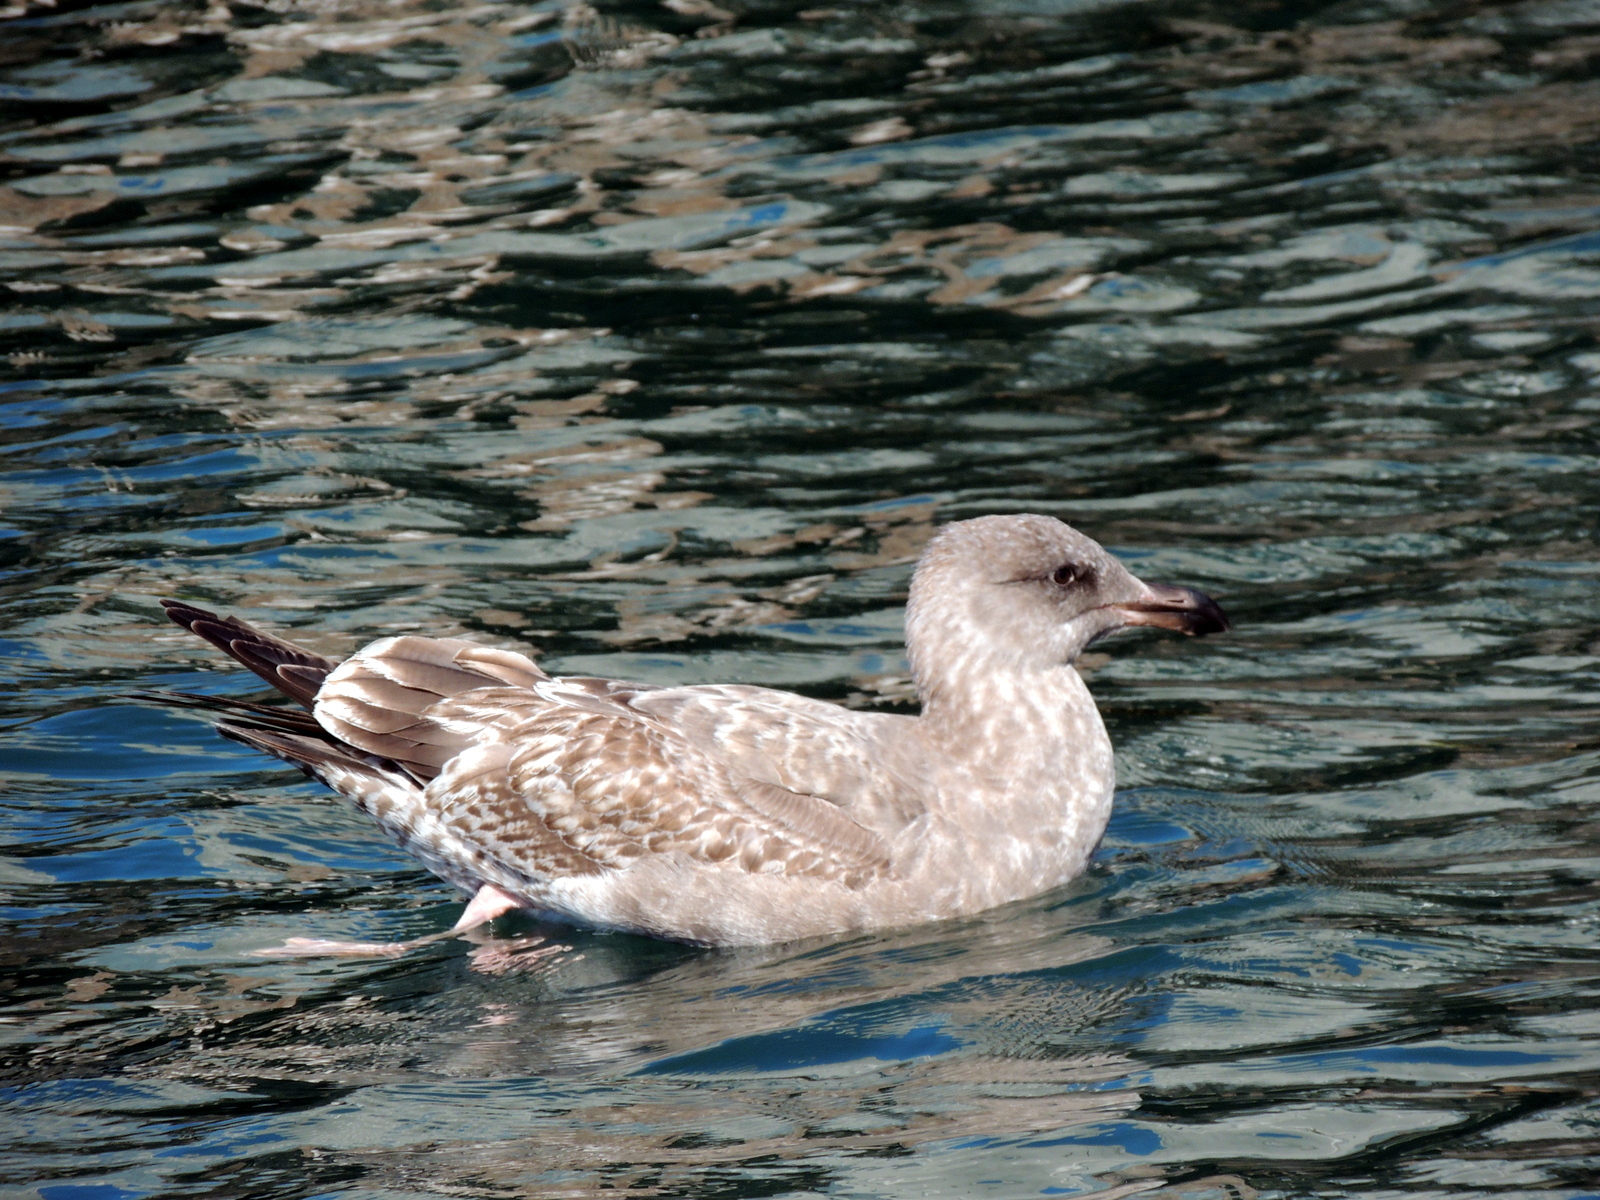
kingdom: Animalia
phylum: Chordata
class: Aves
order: Charadriiformes
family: Laridae
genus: Larus
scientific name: Larus occidentalis
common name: Western gull
